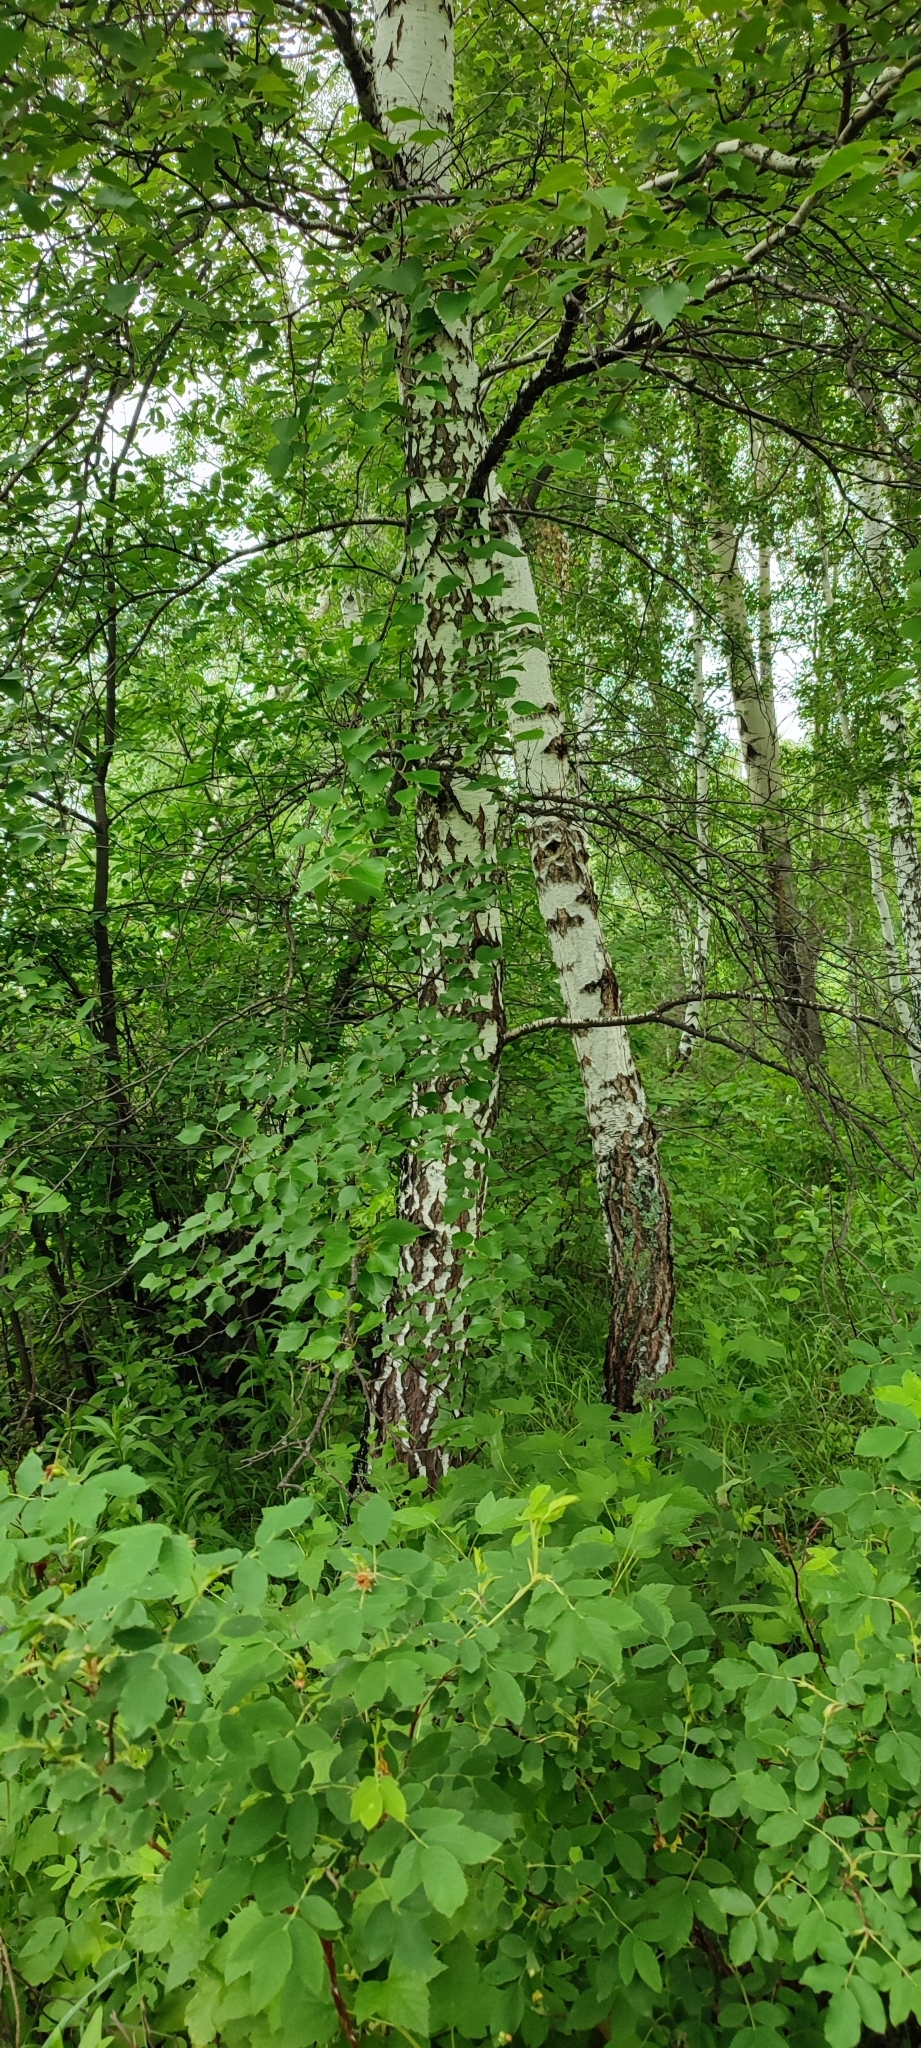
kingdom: Plantae
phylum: Tracheophyta
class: Magnoliopsida
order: Fagales
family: Betulaceae
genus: Betula
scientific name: Betula pendula
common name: Silver birch
